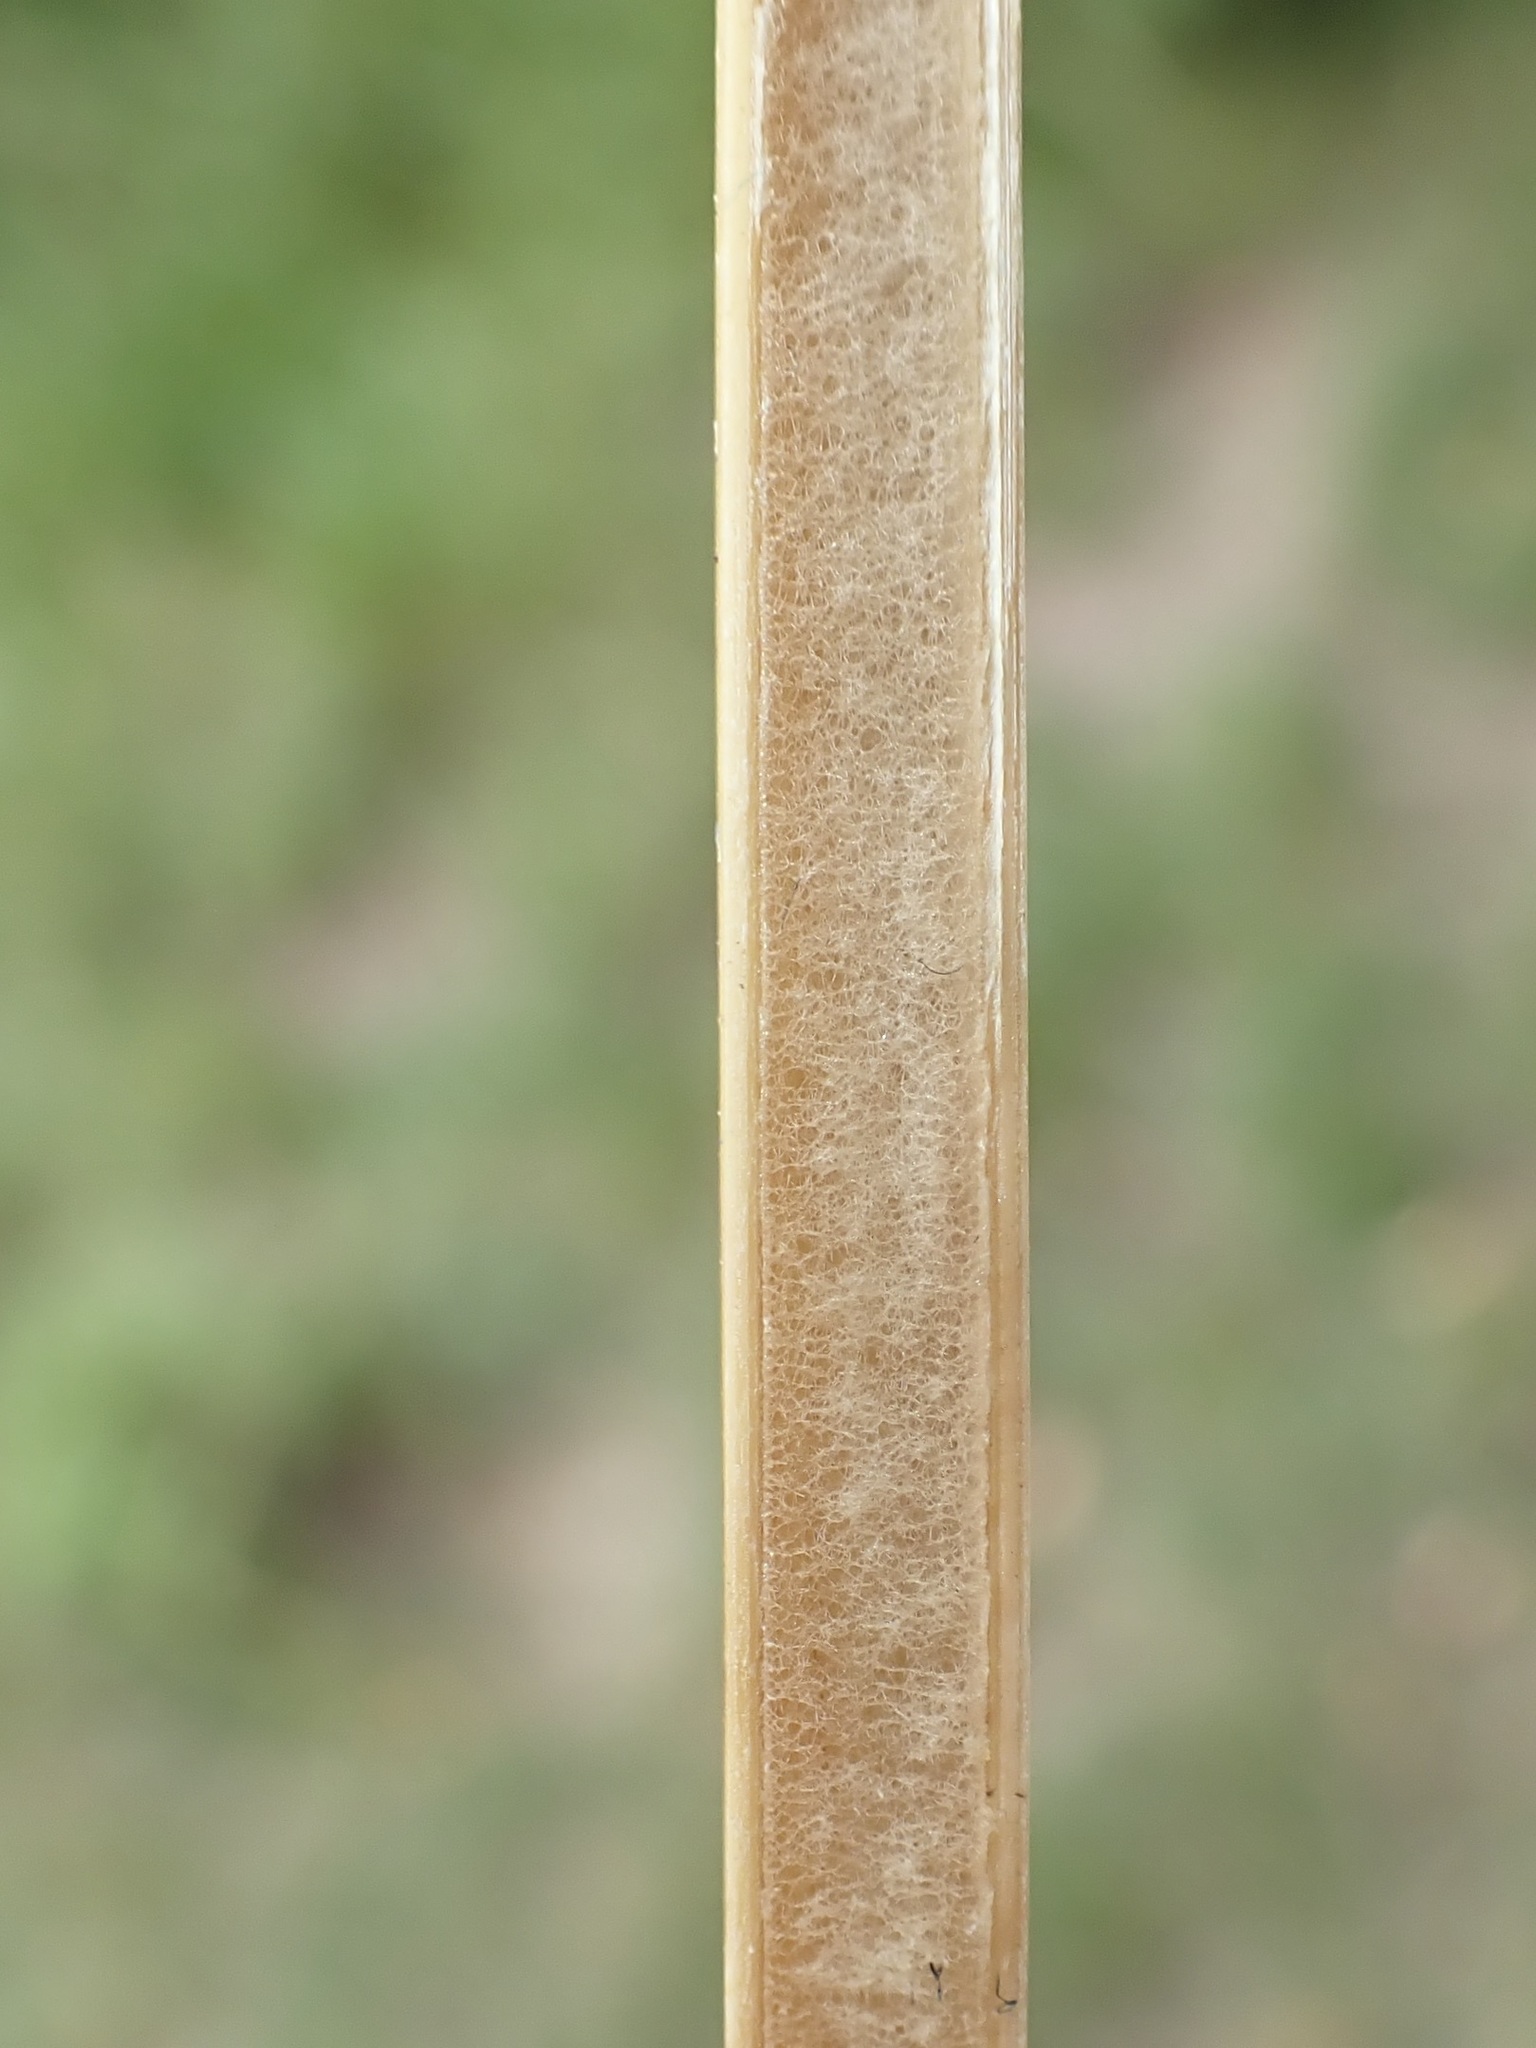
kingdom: Plantae
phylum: Tracheophyta
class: Liliopsida
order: Poales
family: Juncaceae
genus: Juncus
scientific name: Juncus effusus
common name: Soft rush
